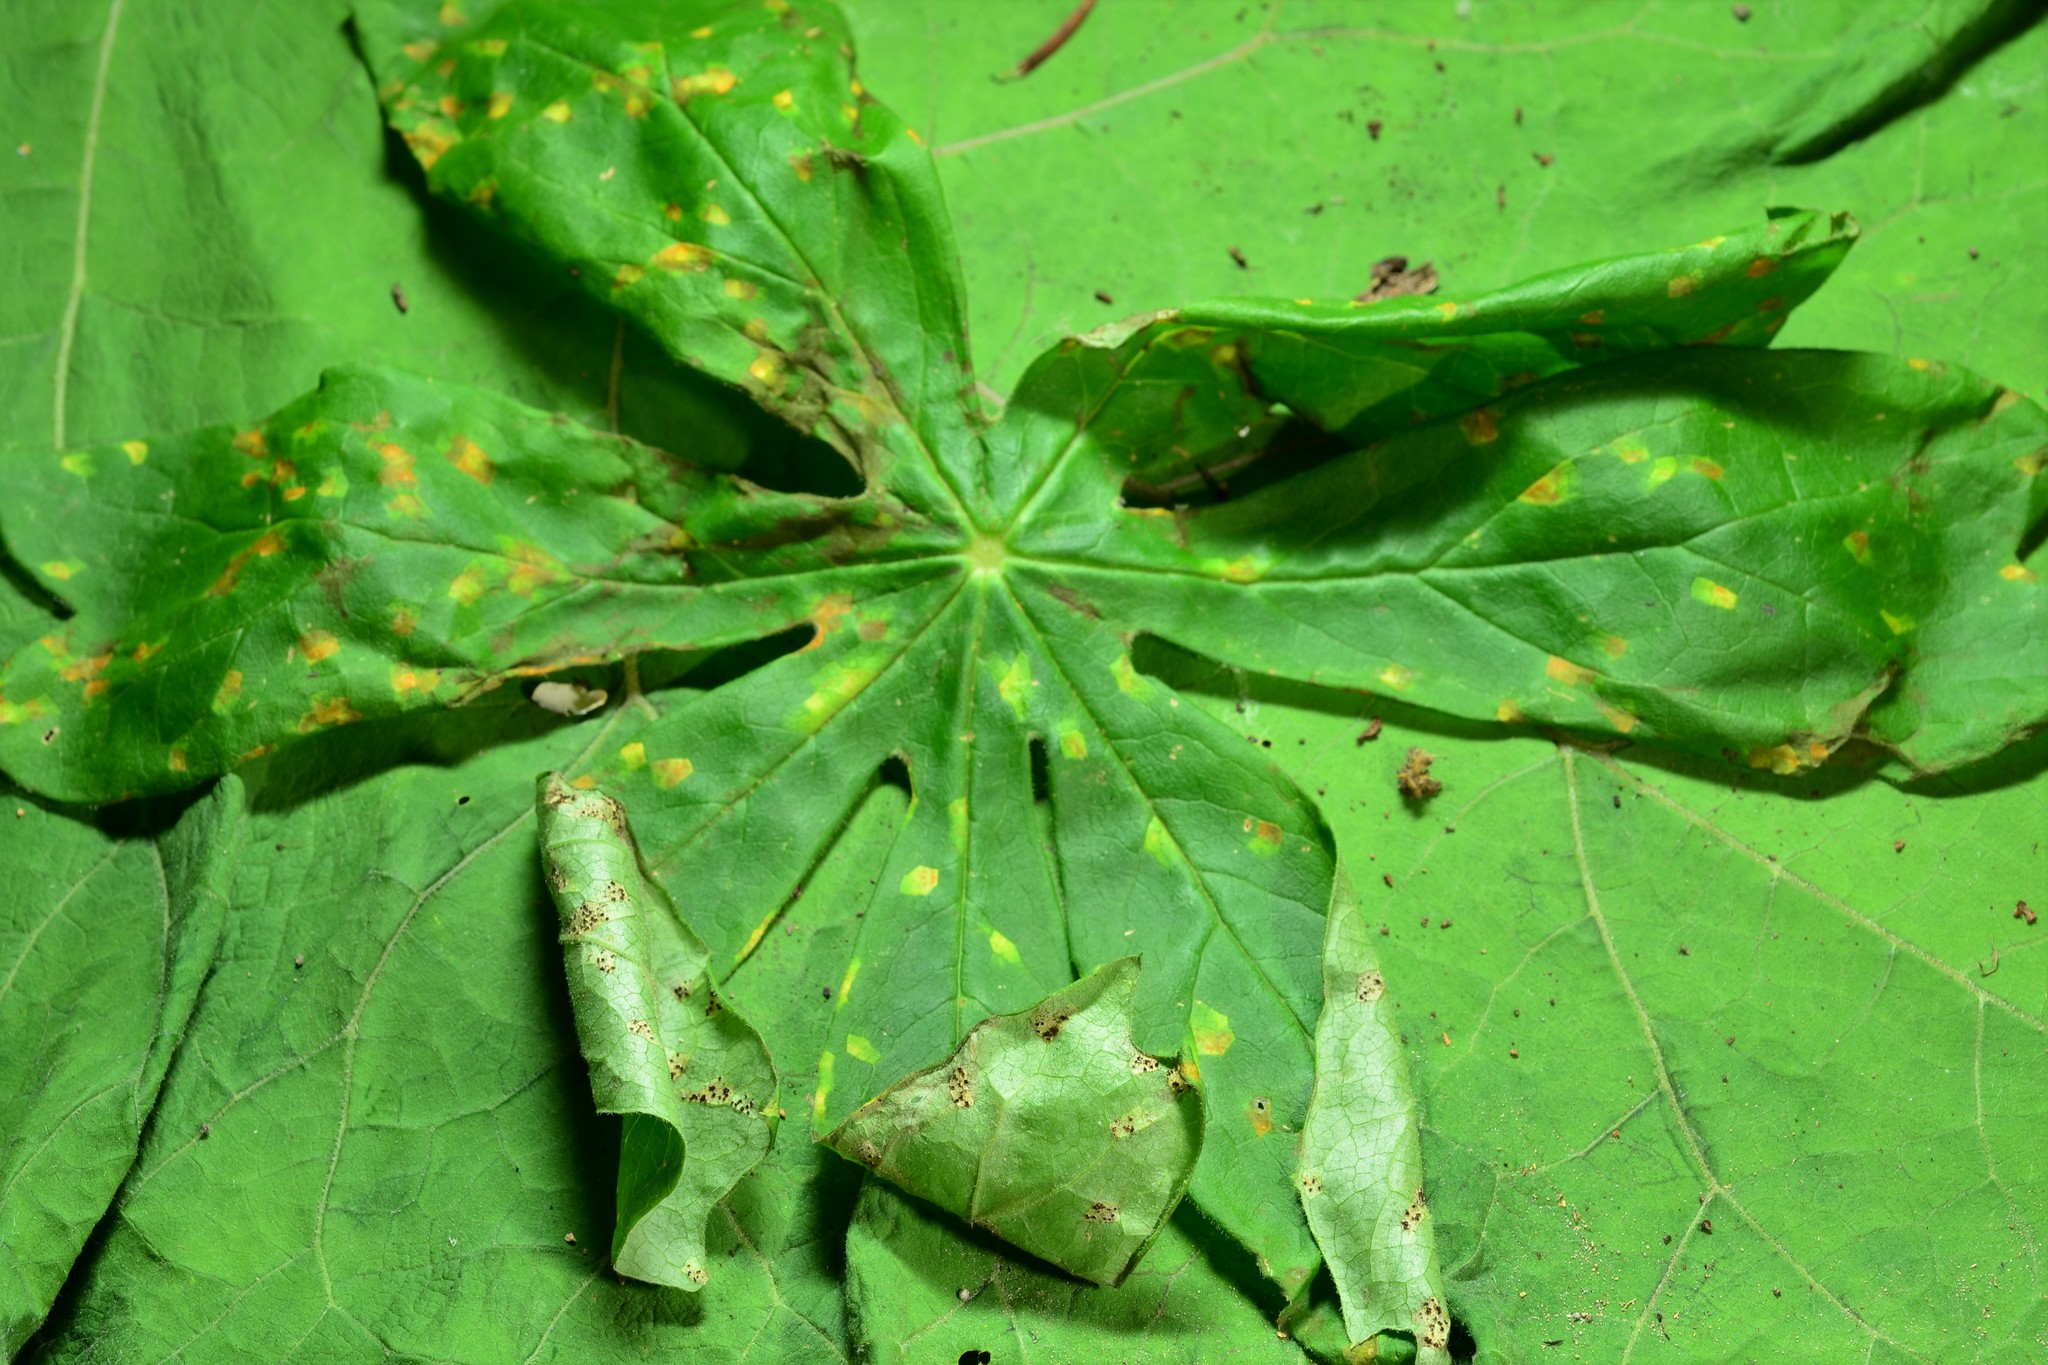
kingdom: Fungi
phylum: Basidiomycota
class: Pucciniomycetes
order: Pucciniales
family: Pucciniaceae
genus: Puccinia
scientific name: Puccinia podophylli
